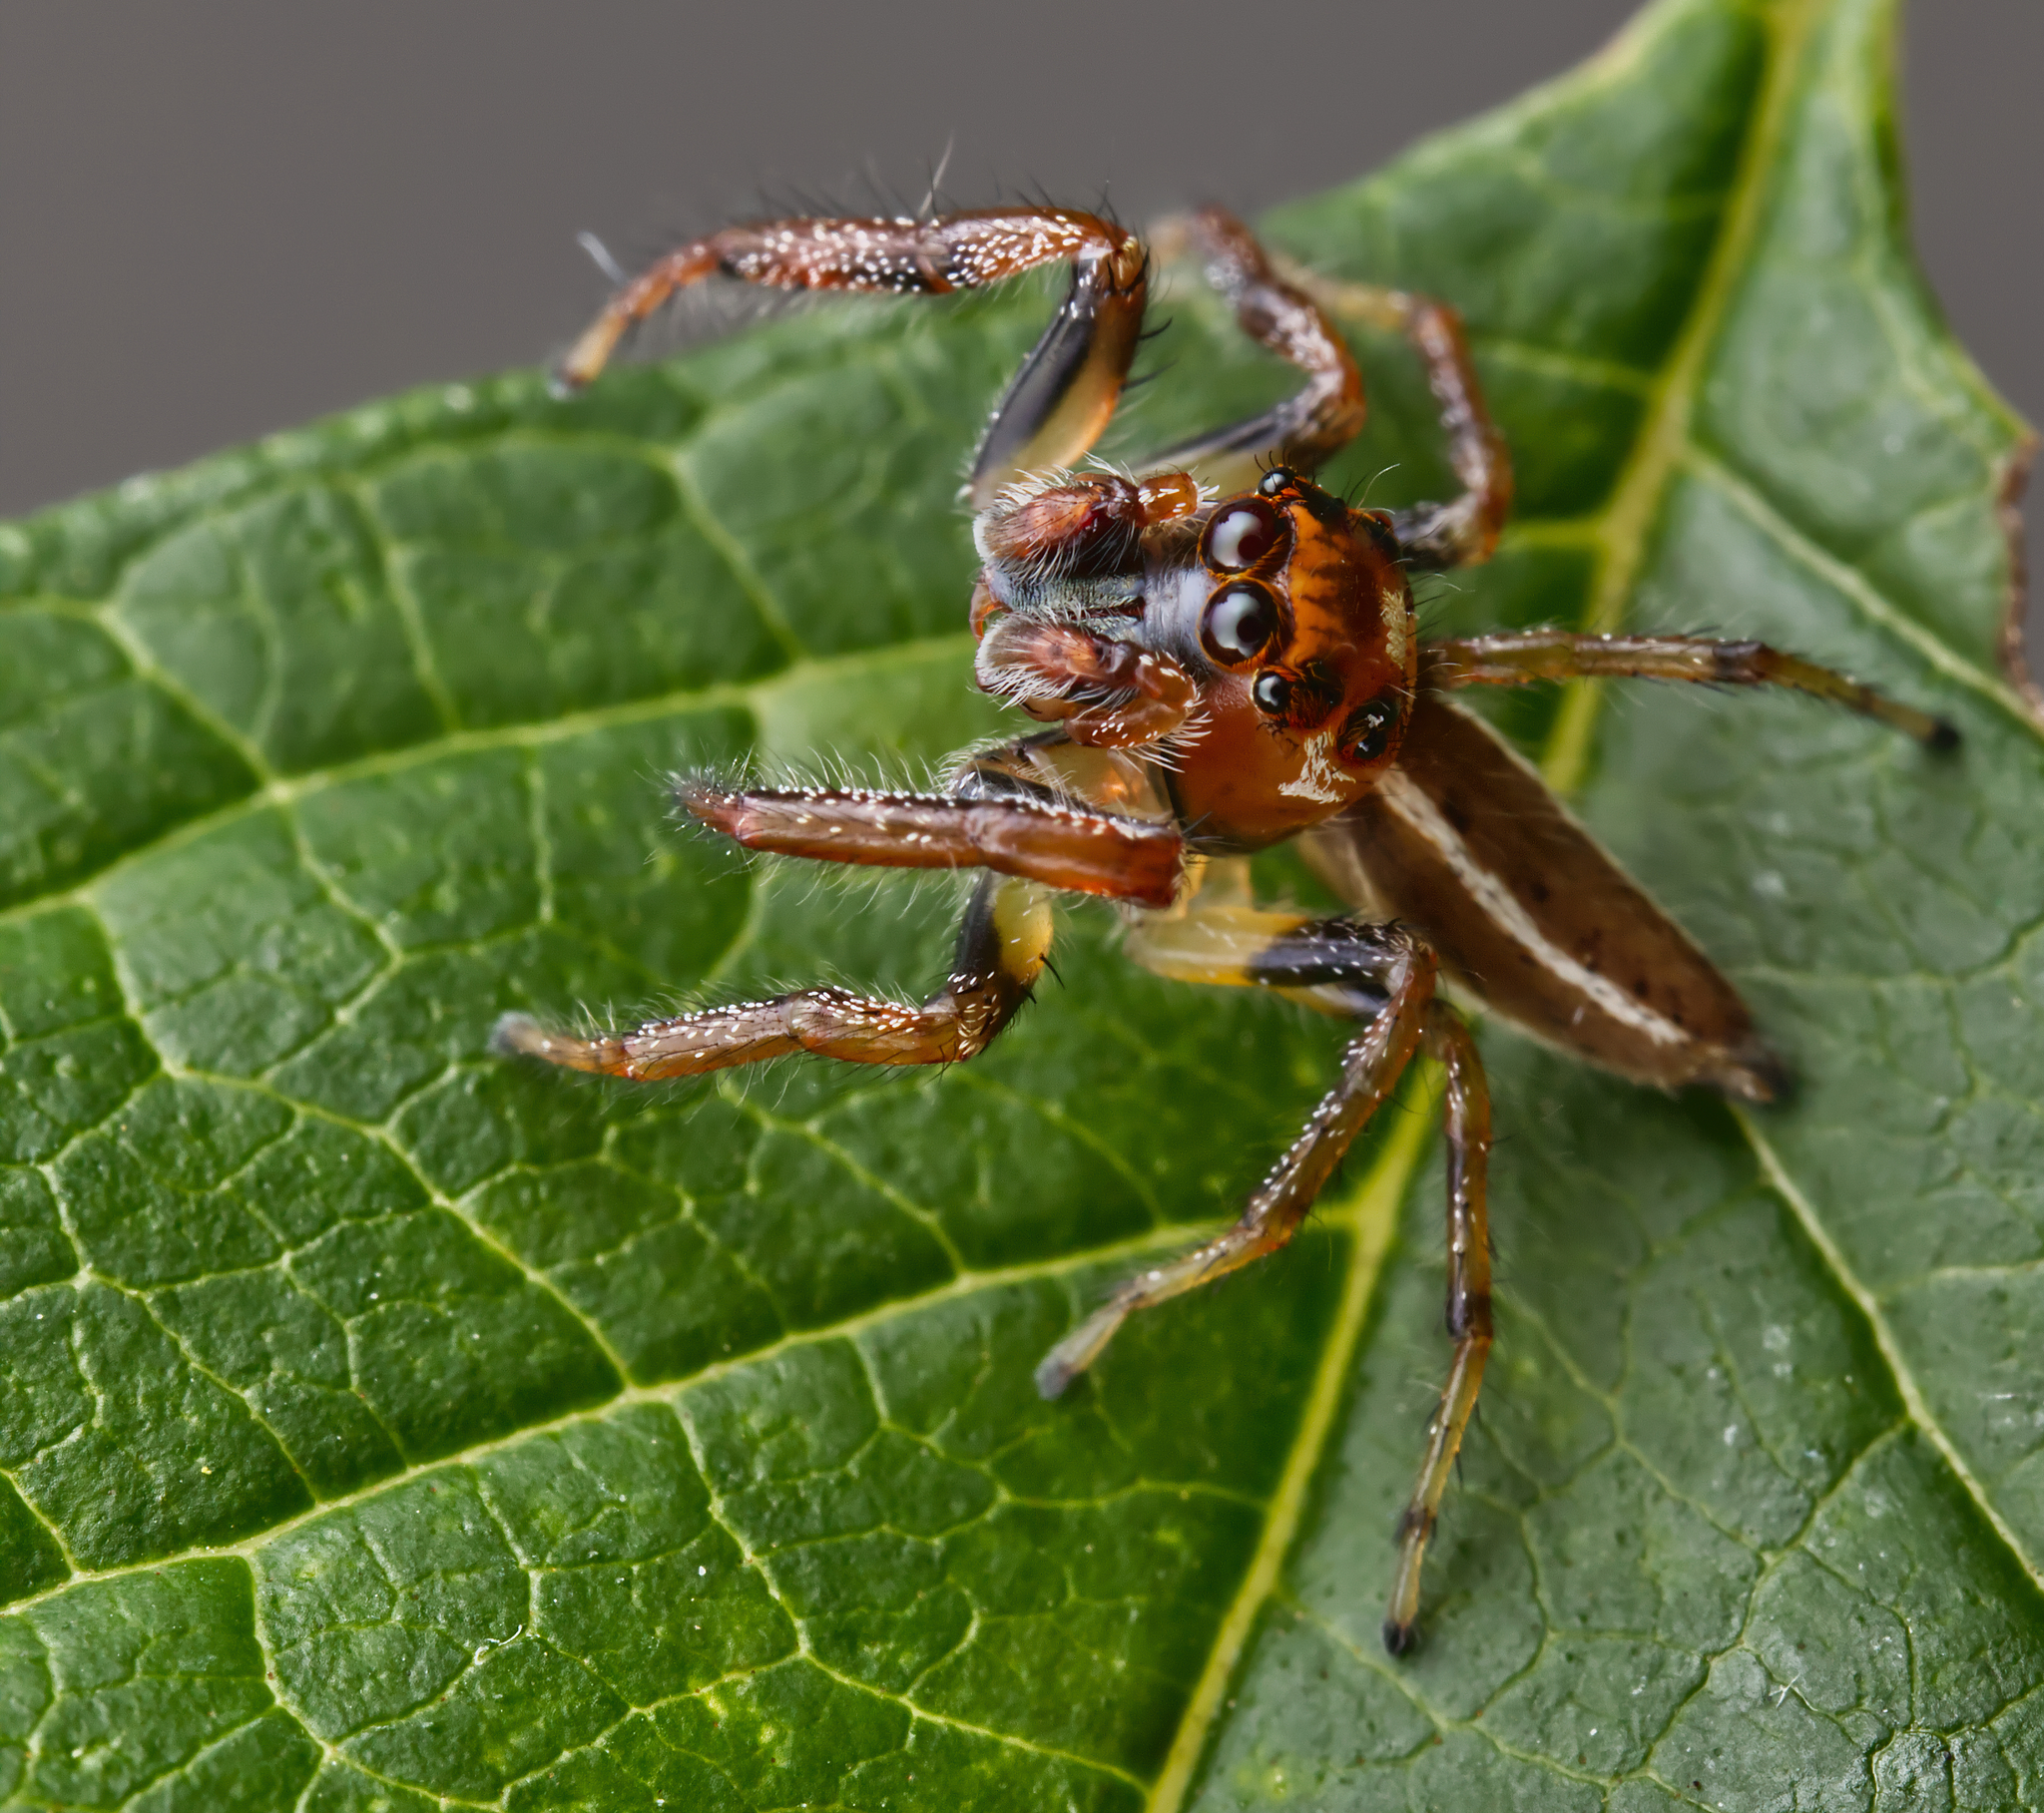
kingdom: Animalia
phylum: Arthropoda
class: Arachnida
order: Araneae
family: Salticidae
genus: Colonus
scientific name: Colonus sylvanus
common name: Jumping spiders
